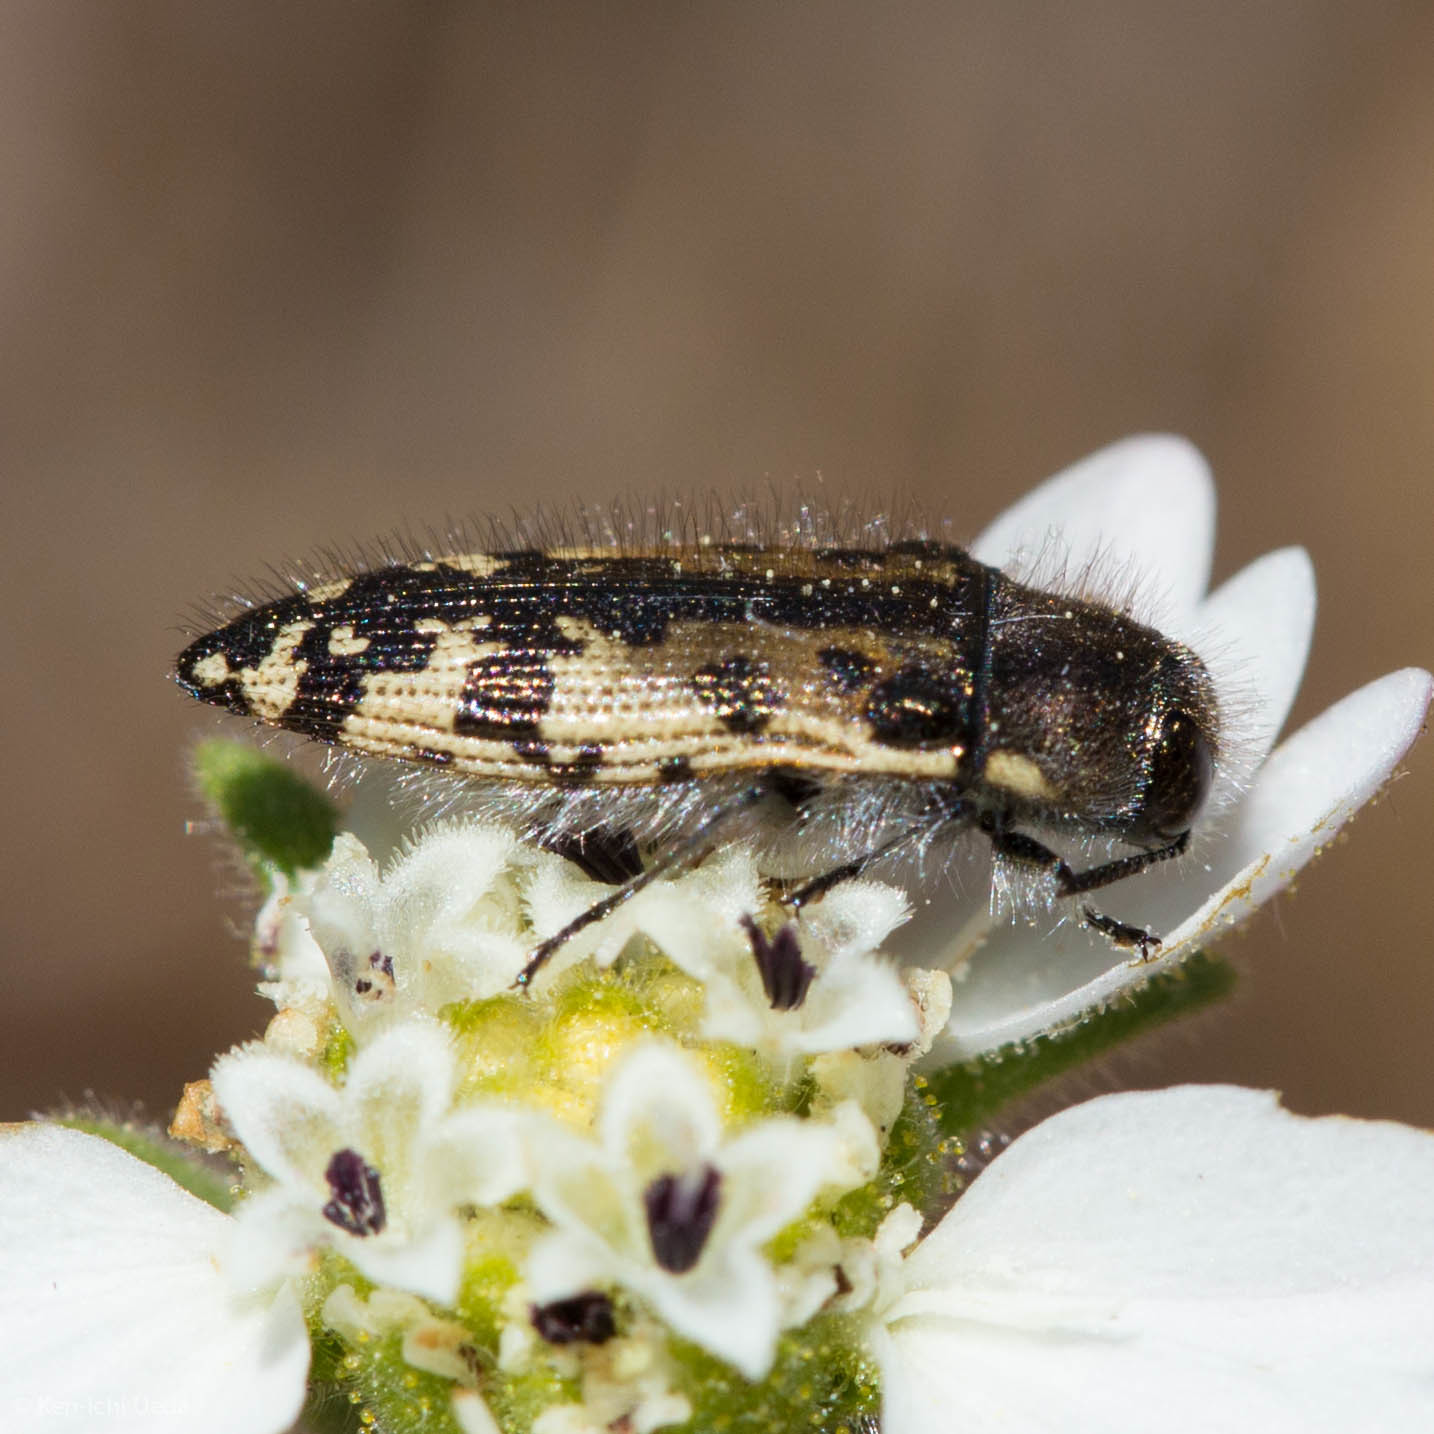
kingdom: Animalia
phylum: Arthropoda
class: Insecta
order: Coleoptera
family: Buprestidae
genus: Acmaeodera
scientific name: Acmaeodera hepburnii
